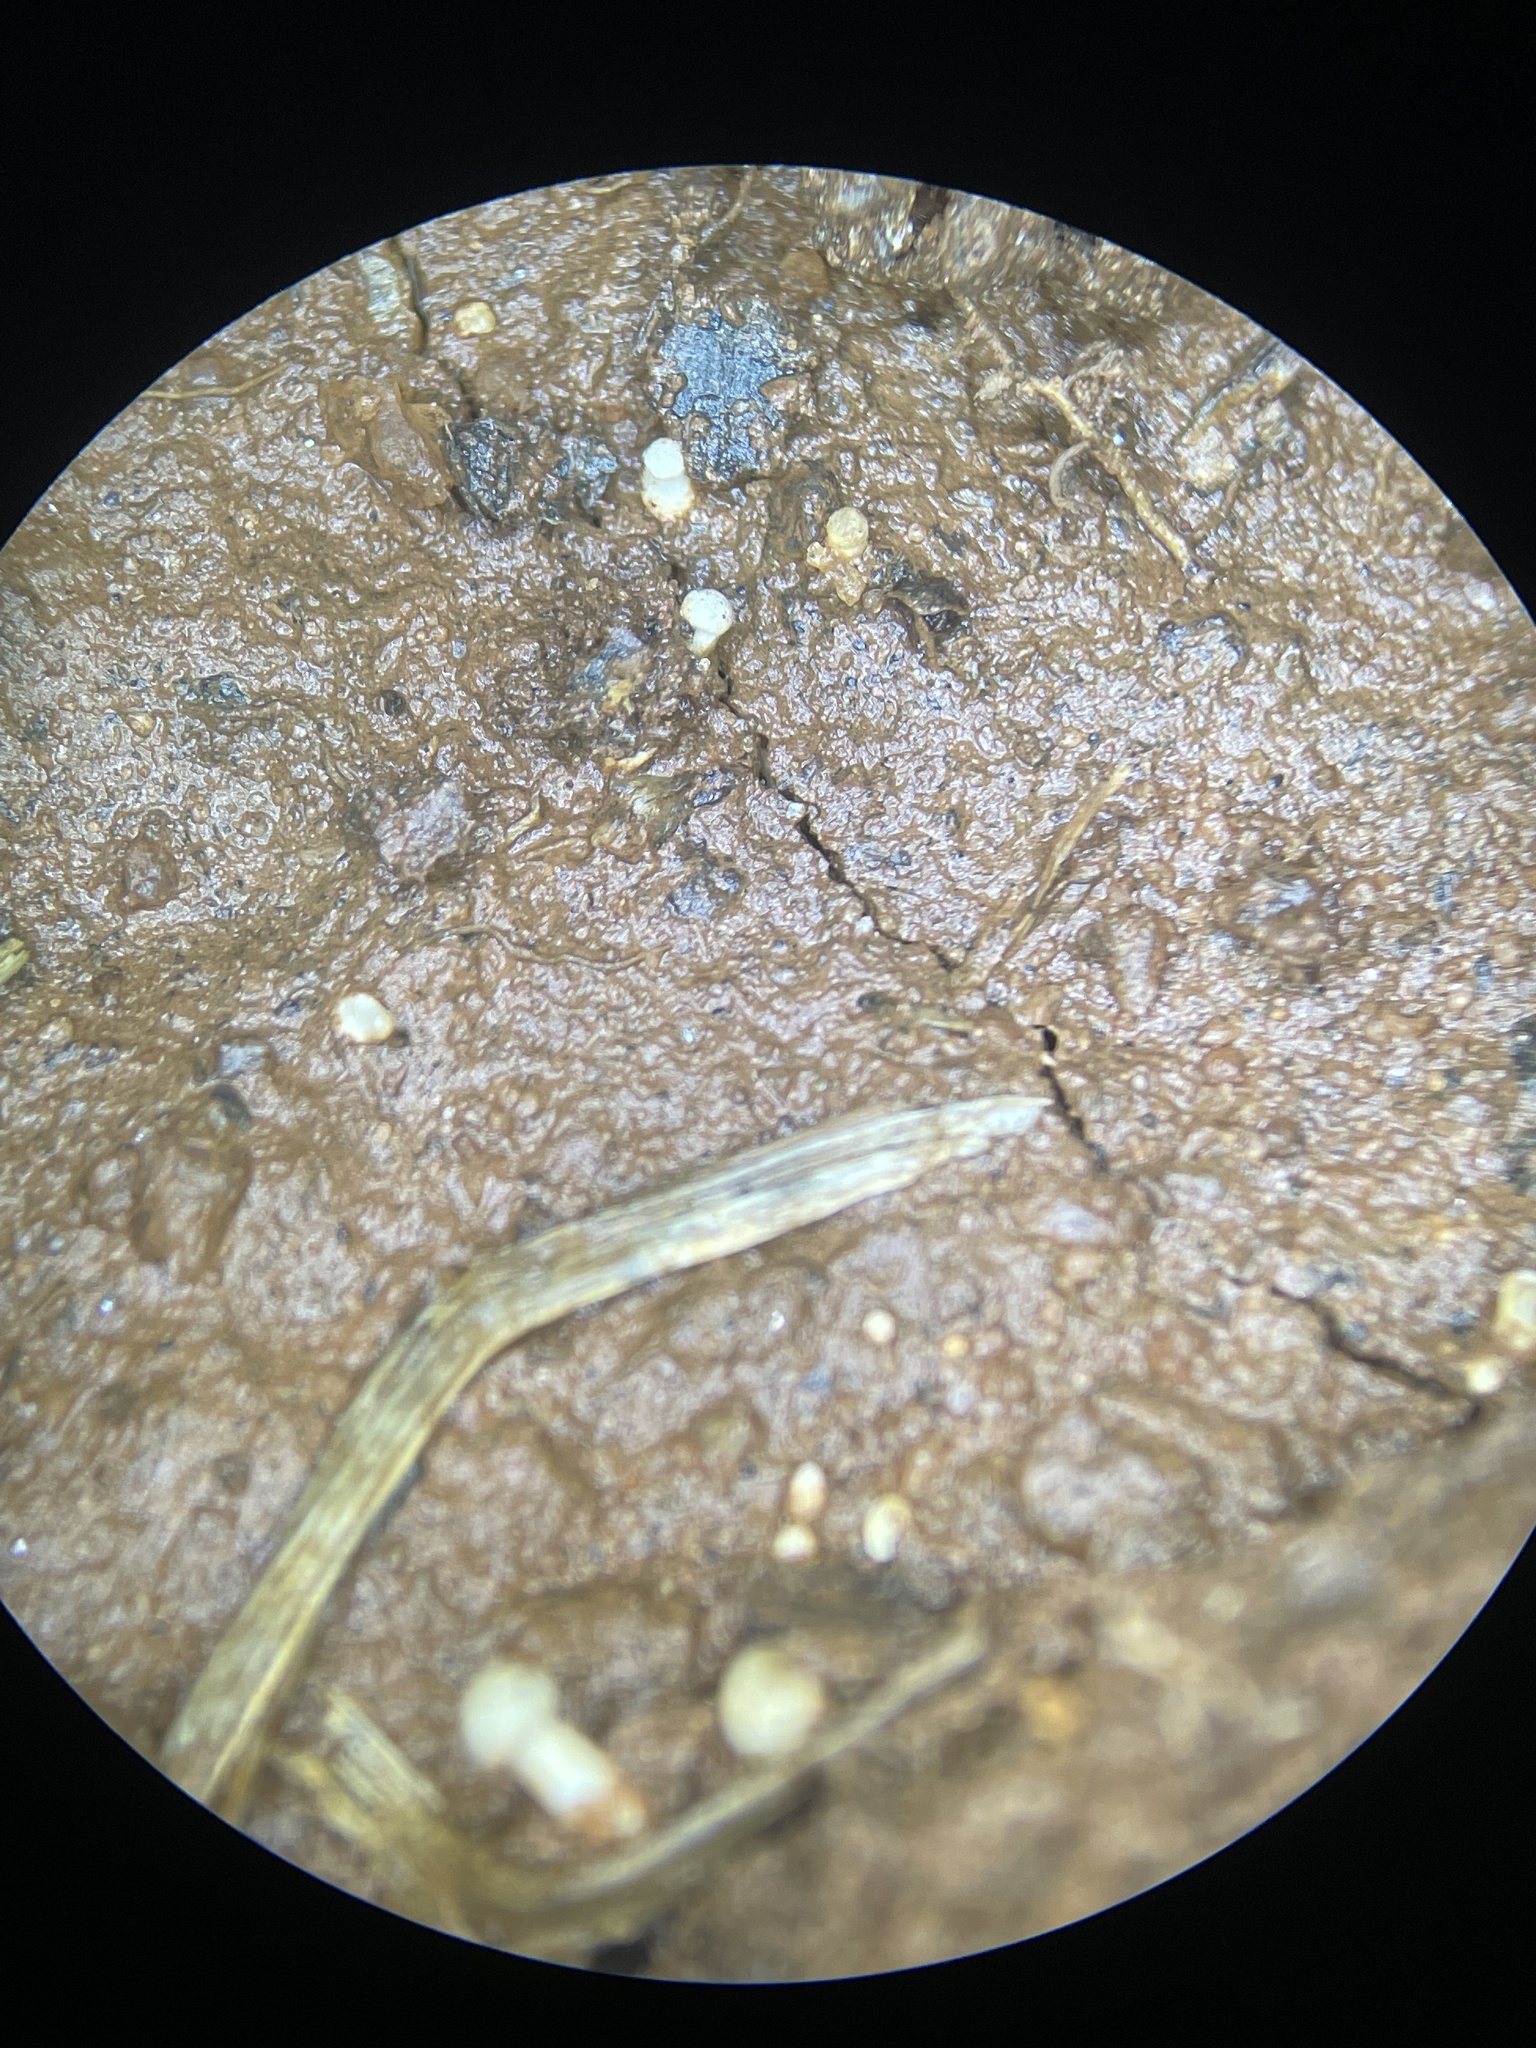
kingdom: Fungi
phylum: Basidiomycota
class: Agaricomycetes
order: Agaricales
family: Callistosporiaceae
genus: Callistosporium
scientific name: Callistosporium pseudofelleum
